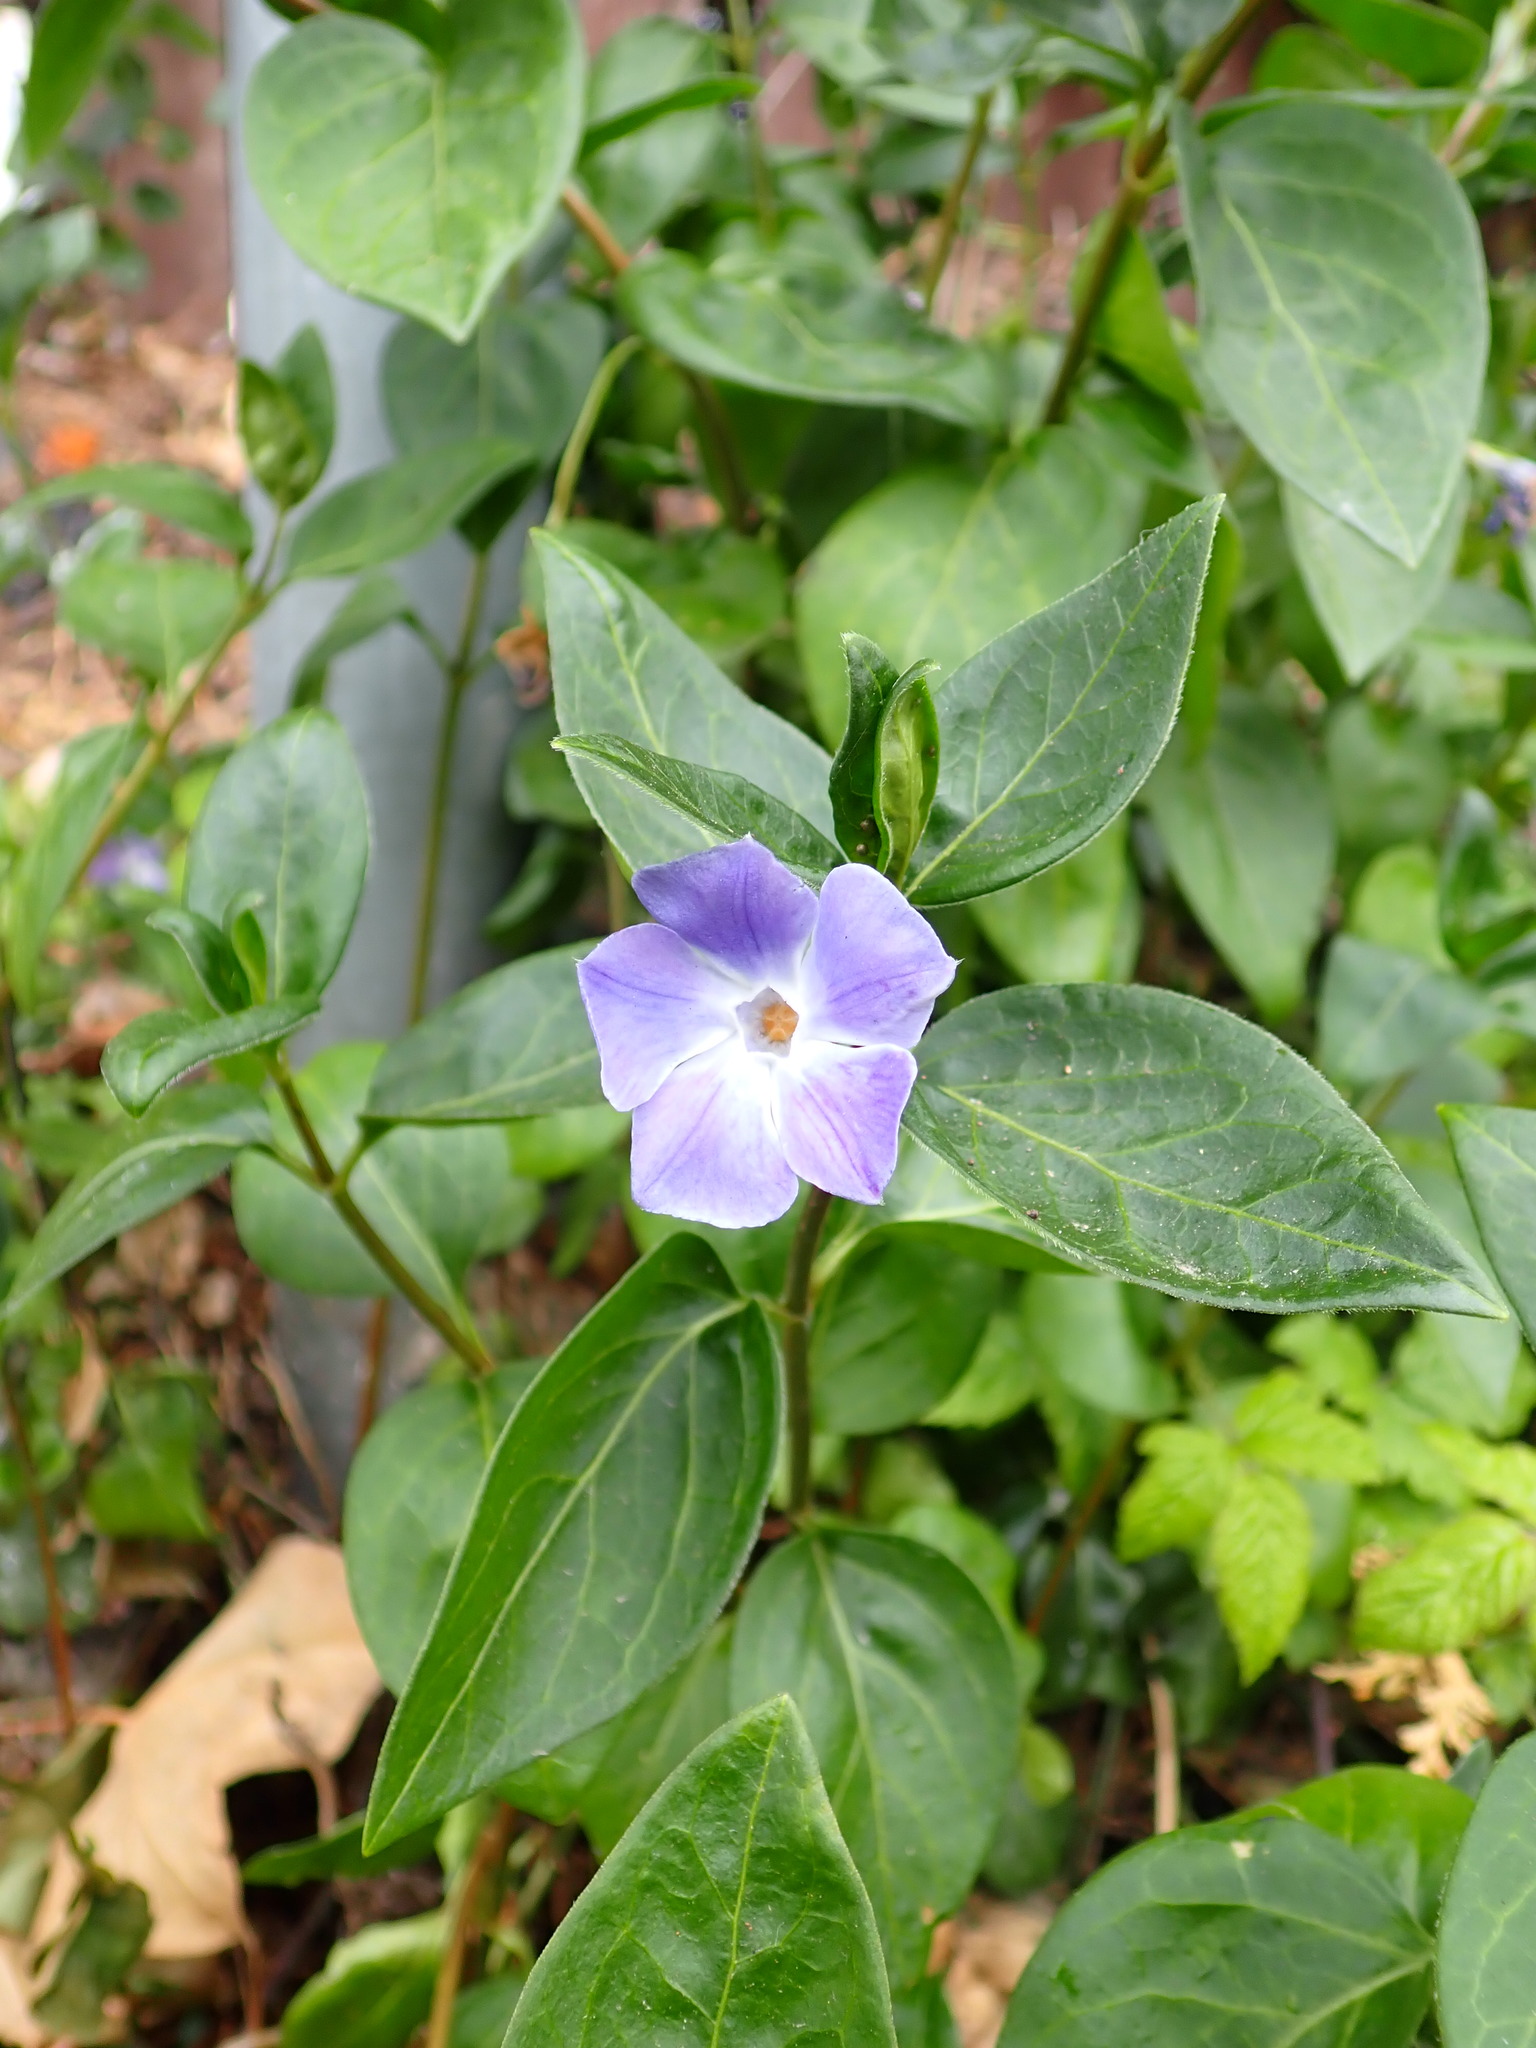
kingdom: Plantae
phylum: Tracheophyta
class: Magnoliopsida
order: Gentianales
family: Apocynaceae
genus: Vinca
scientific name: Vinca major
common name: Greater periwinkle
